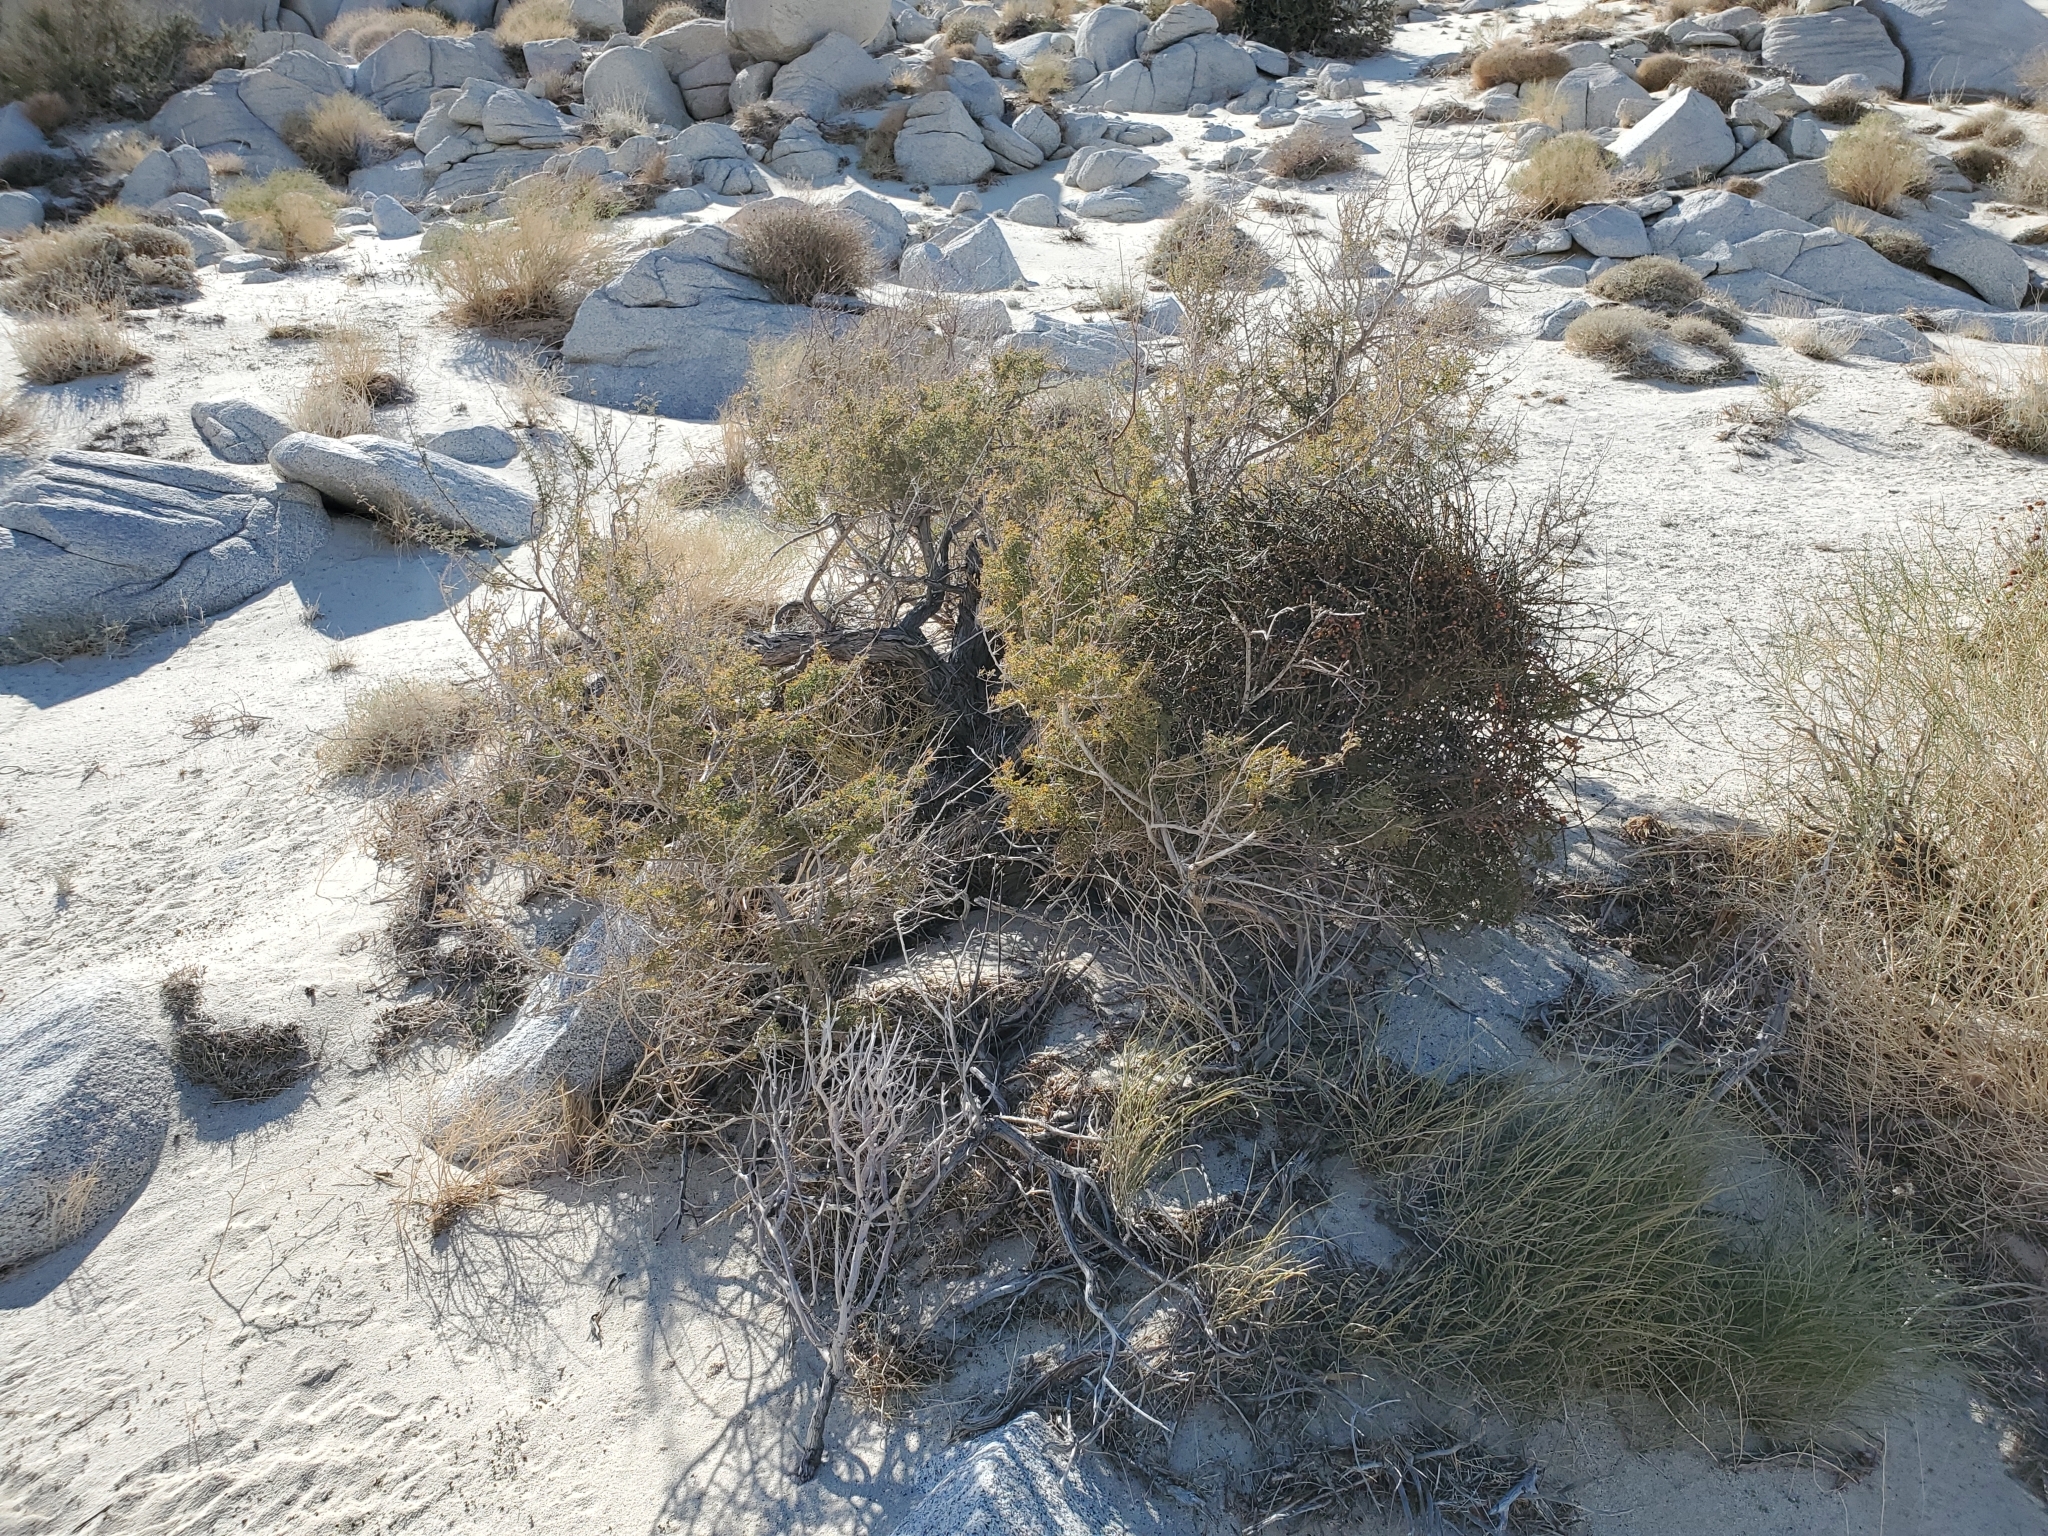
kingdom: Plantae
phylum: Tracheophyta
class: Magnoliopsida
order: Santalales
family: Viscaceae
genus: Phoradendron
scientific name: Phoradendron californicum
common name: Acacia mistletoe
